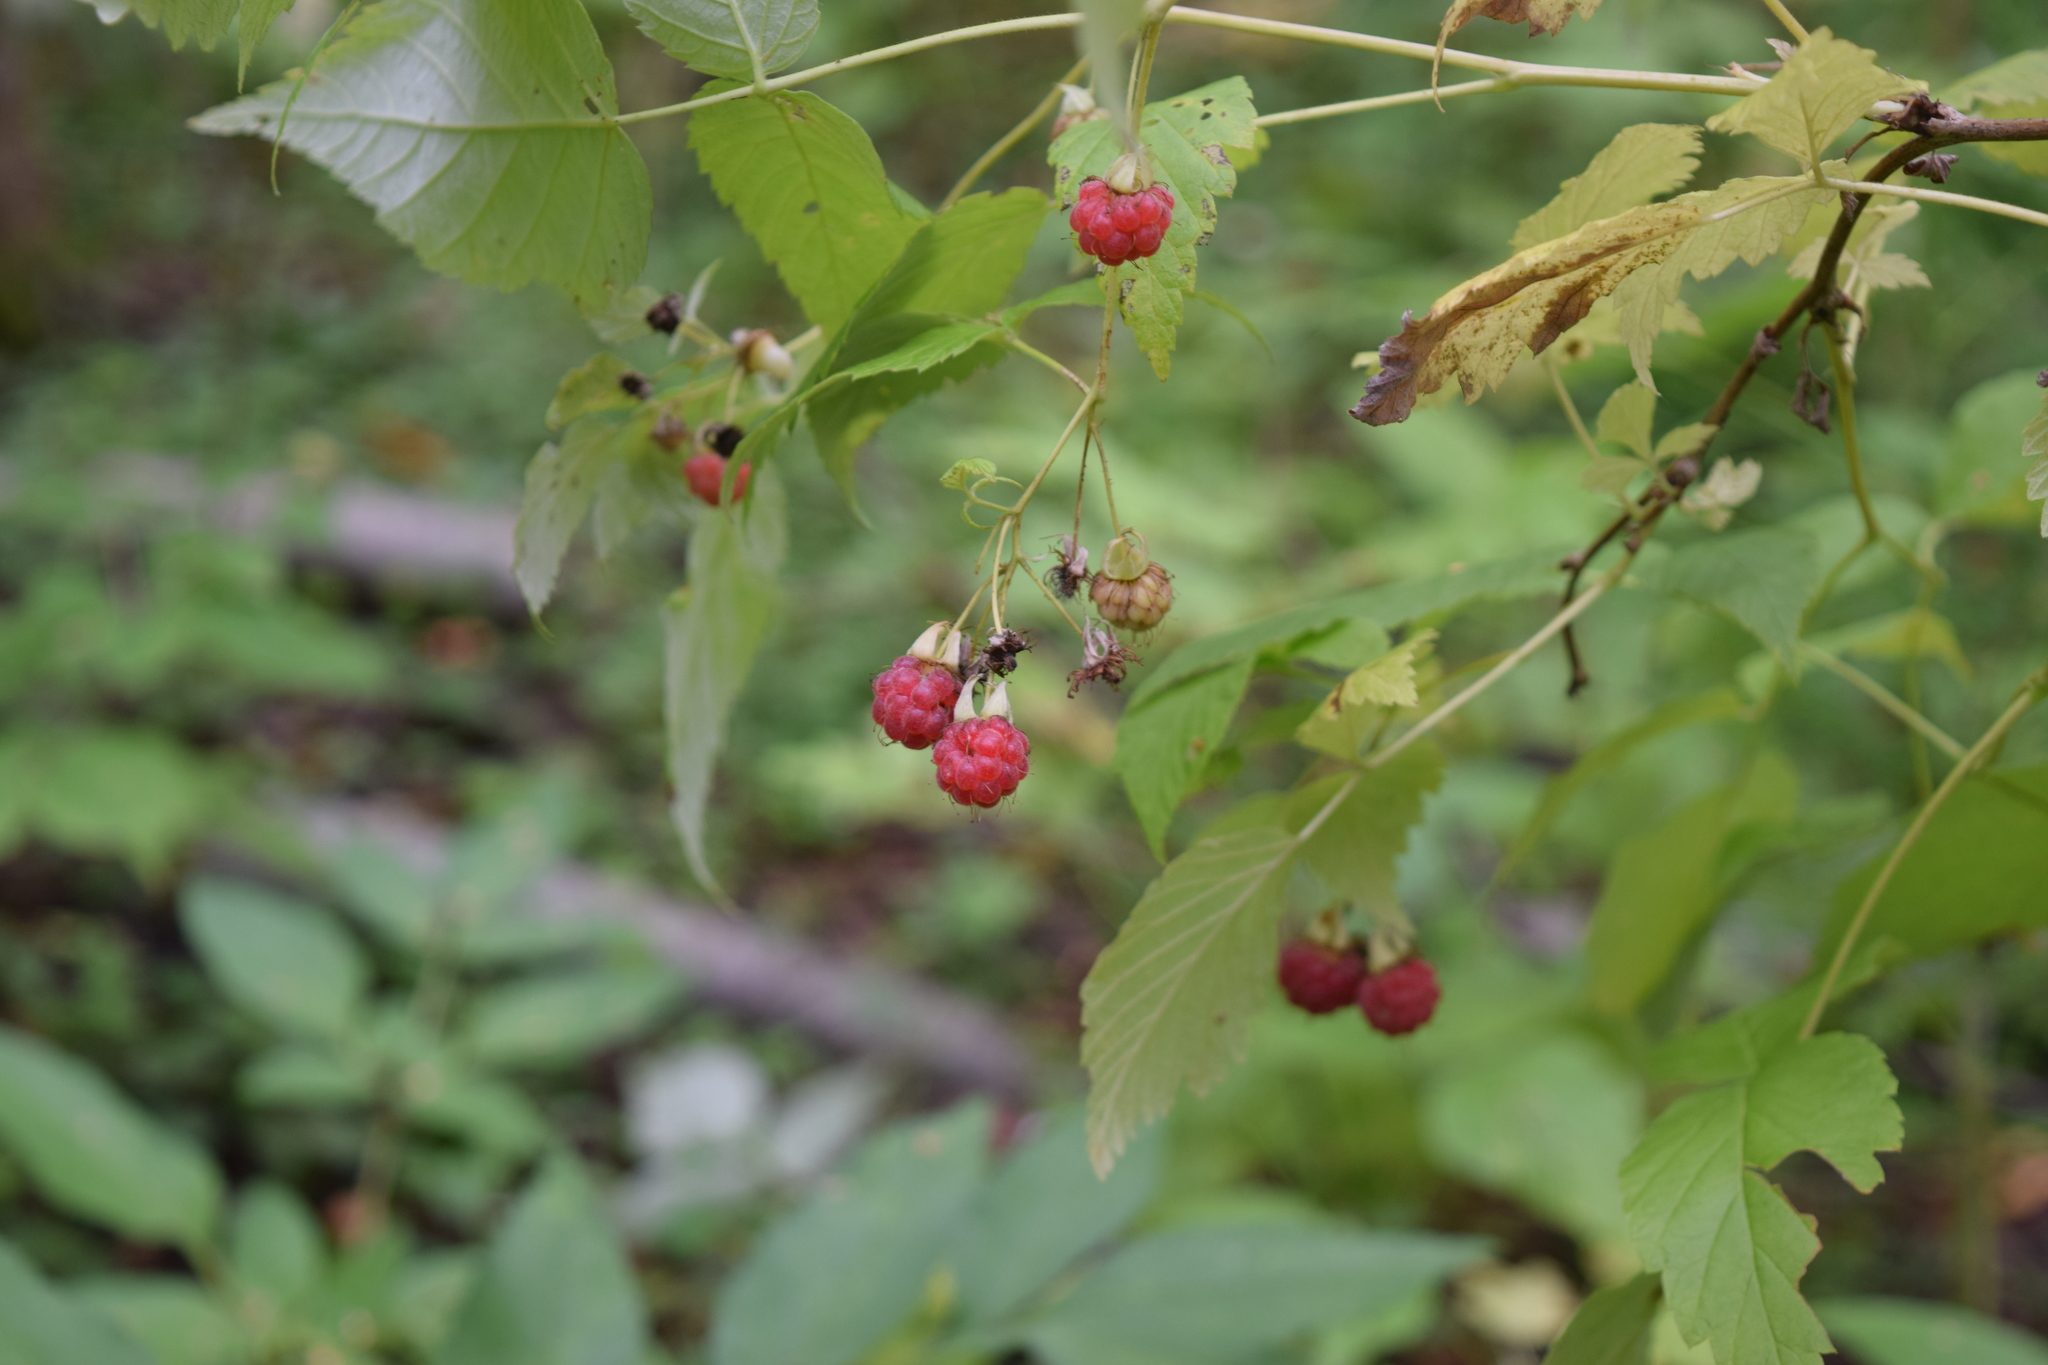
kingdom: Plantae
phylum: Tracheophyta
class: Magnoliopsida
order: Rosales
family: Rosaceae
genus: Rubus
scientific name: Rubus idaeus
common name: Raspberry
